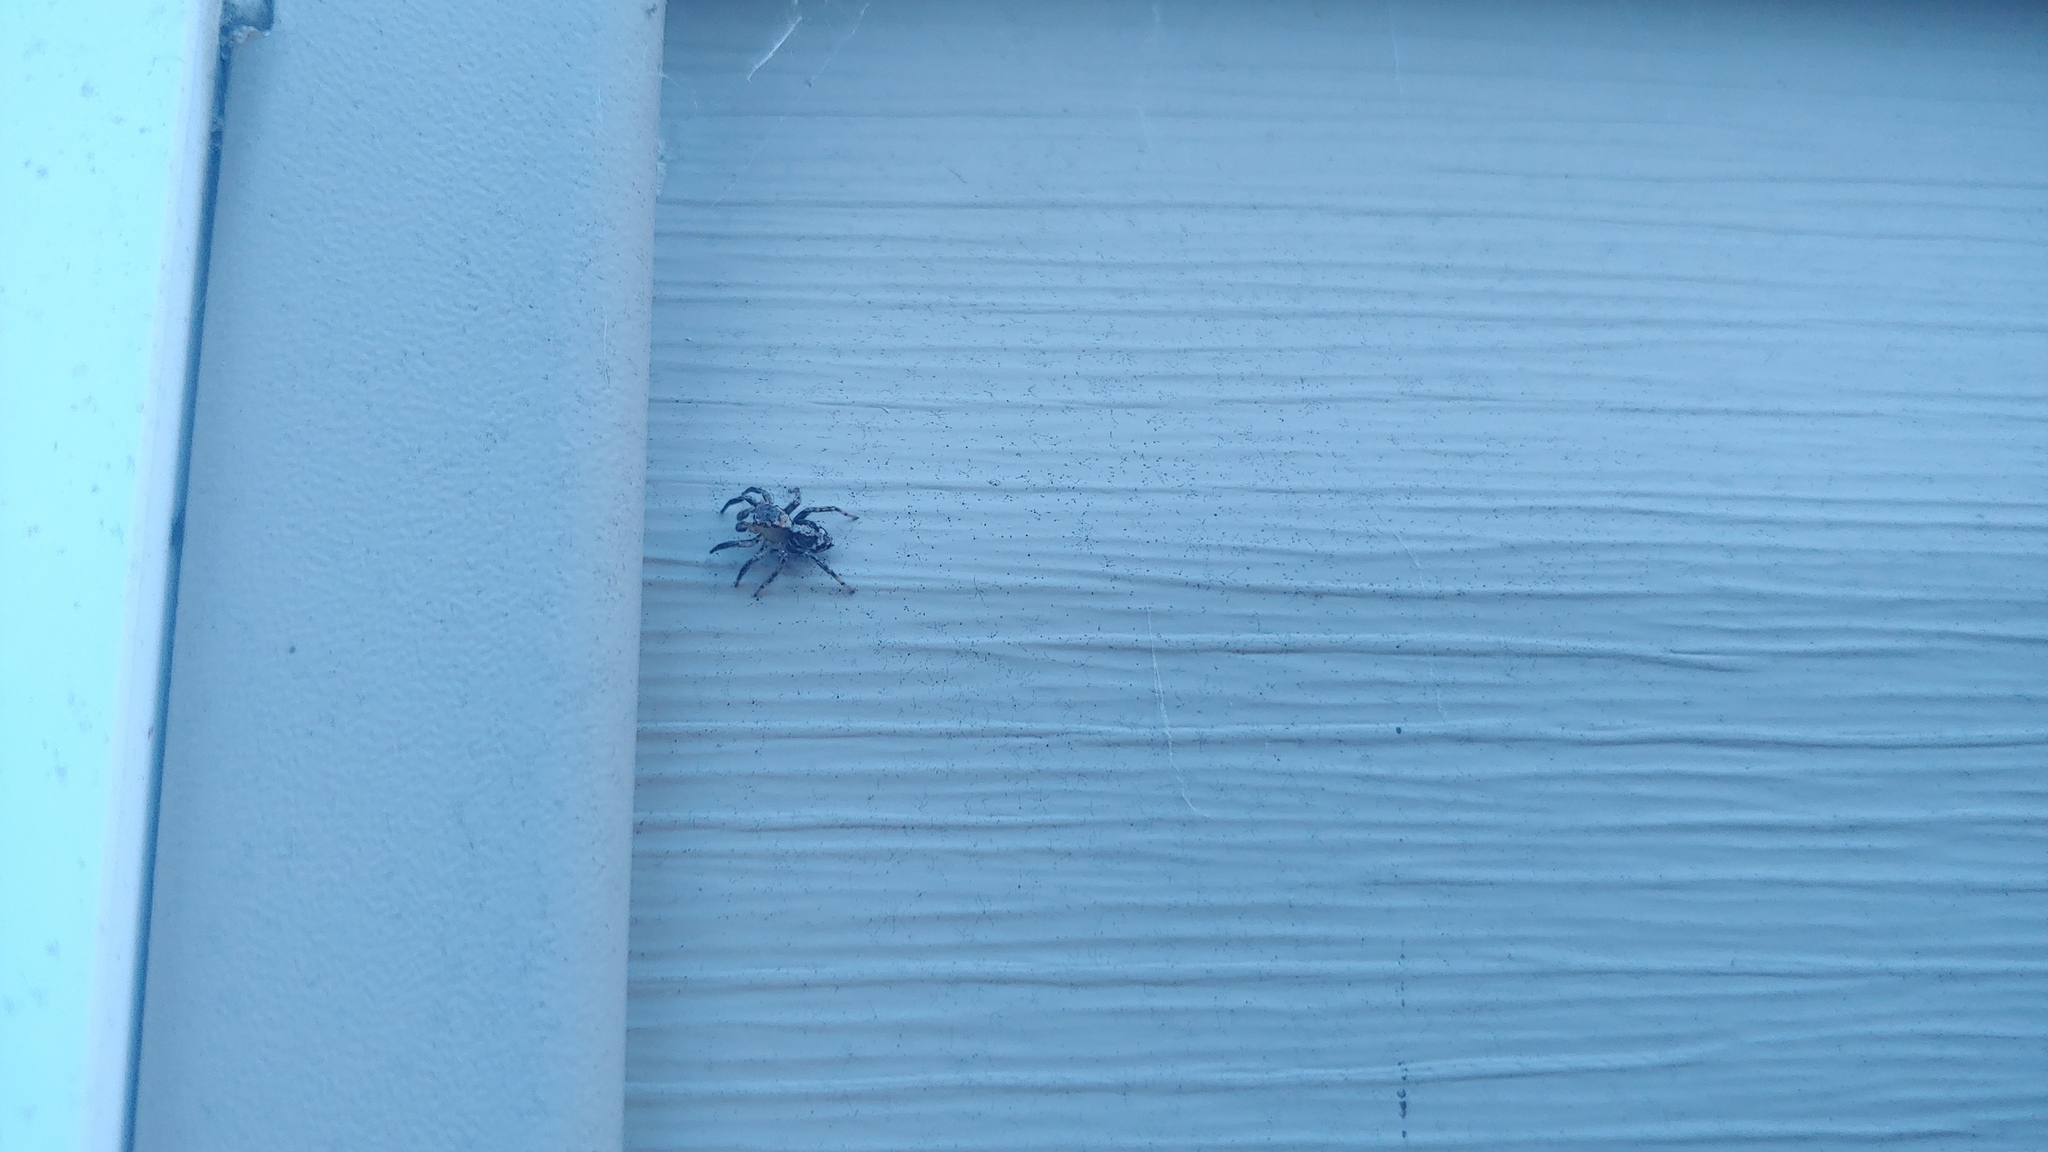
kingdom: Animalia
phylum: Arthropoda
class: Arachnida
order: Araneae
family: Salticidae
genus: Naphrys
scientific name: Naphrys pulex
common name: Flea jumping spider
